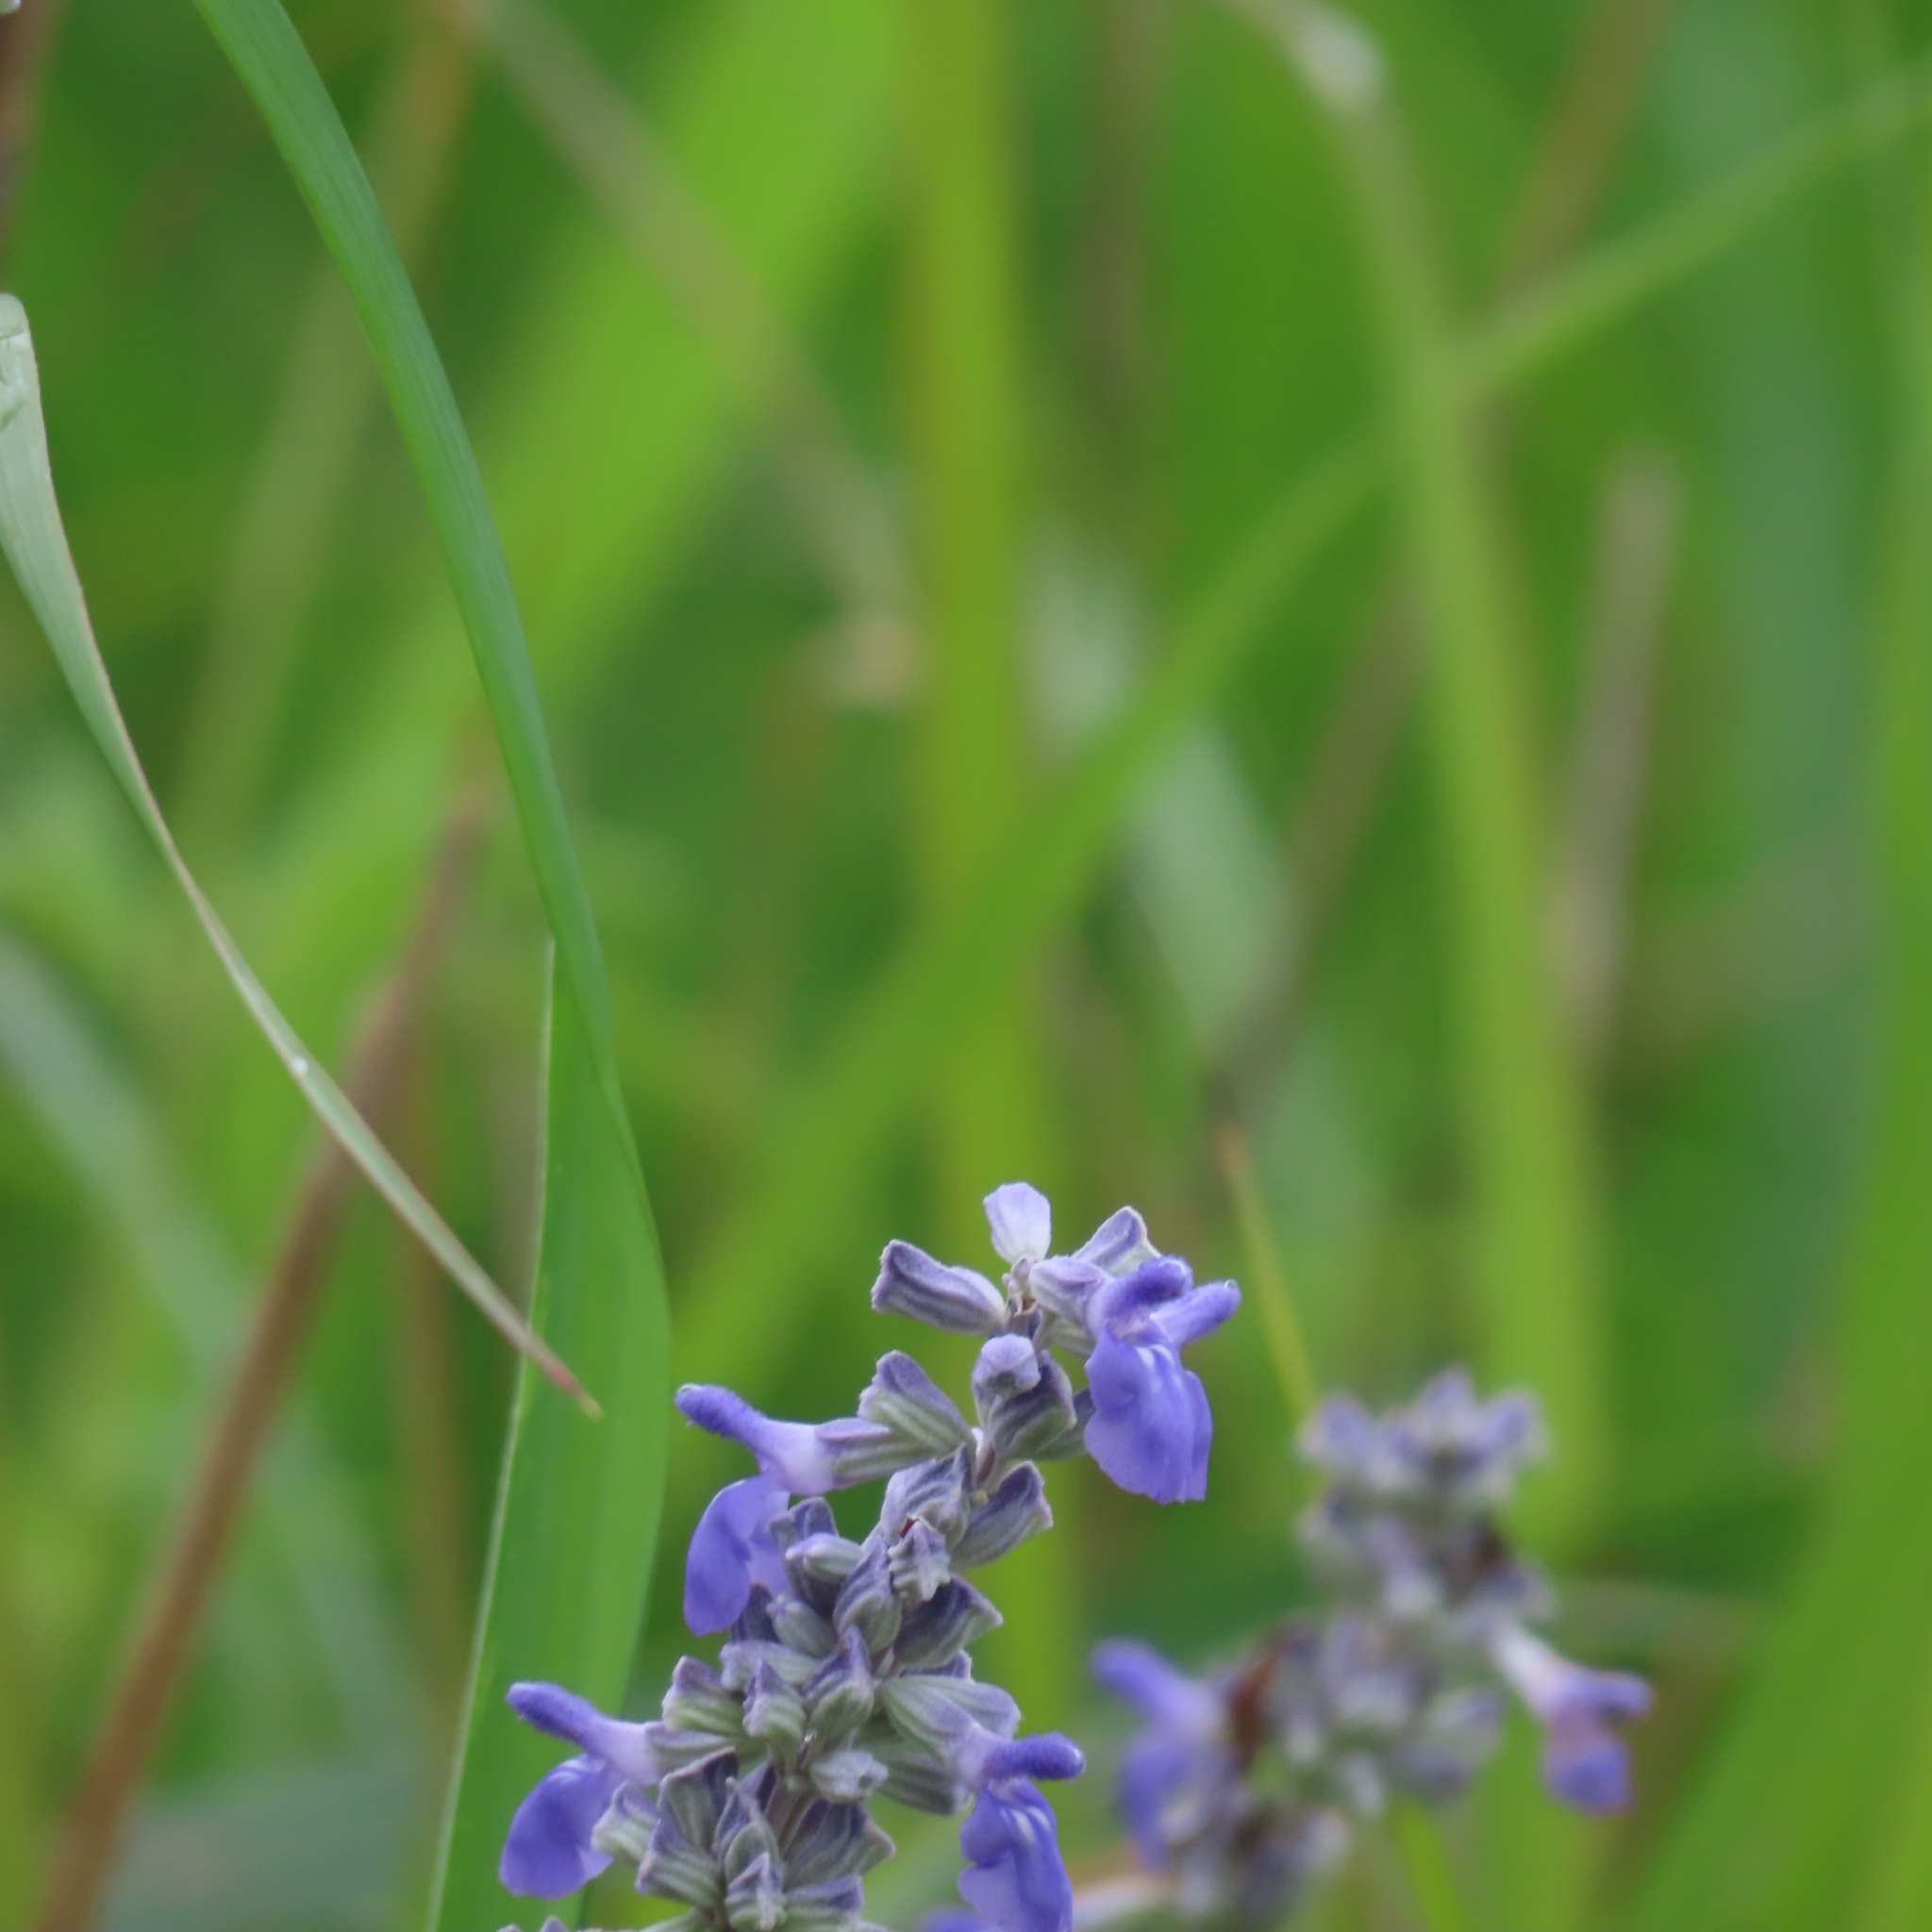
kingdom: Plantae
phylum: Tracheophyta
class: Magnoliopsida
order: Lamiales
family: Lamiaceae
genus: Salvia
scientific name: Salvia farinacea
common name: Mealy sage
